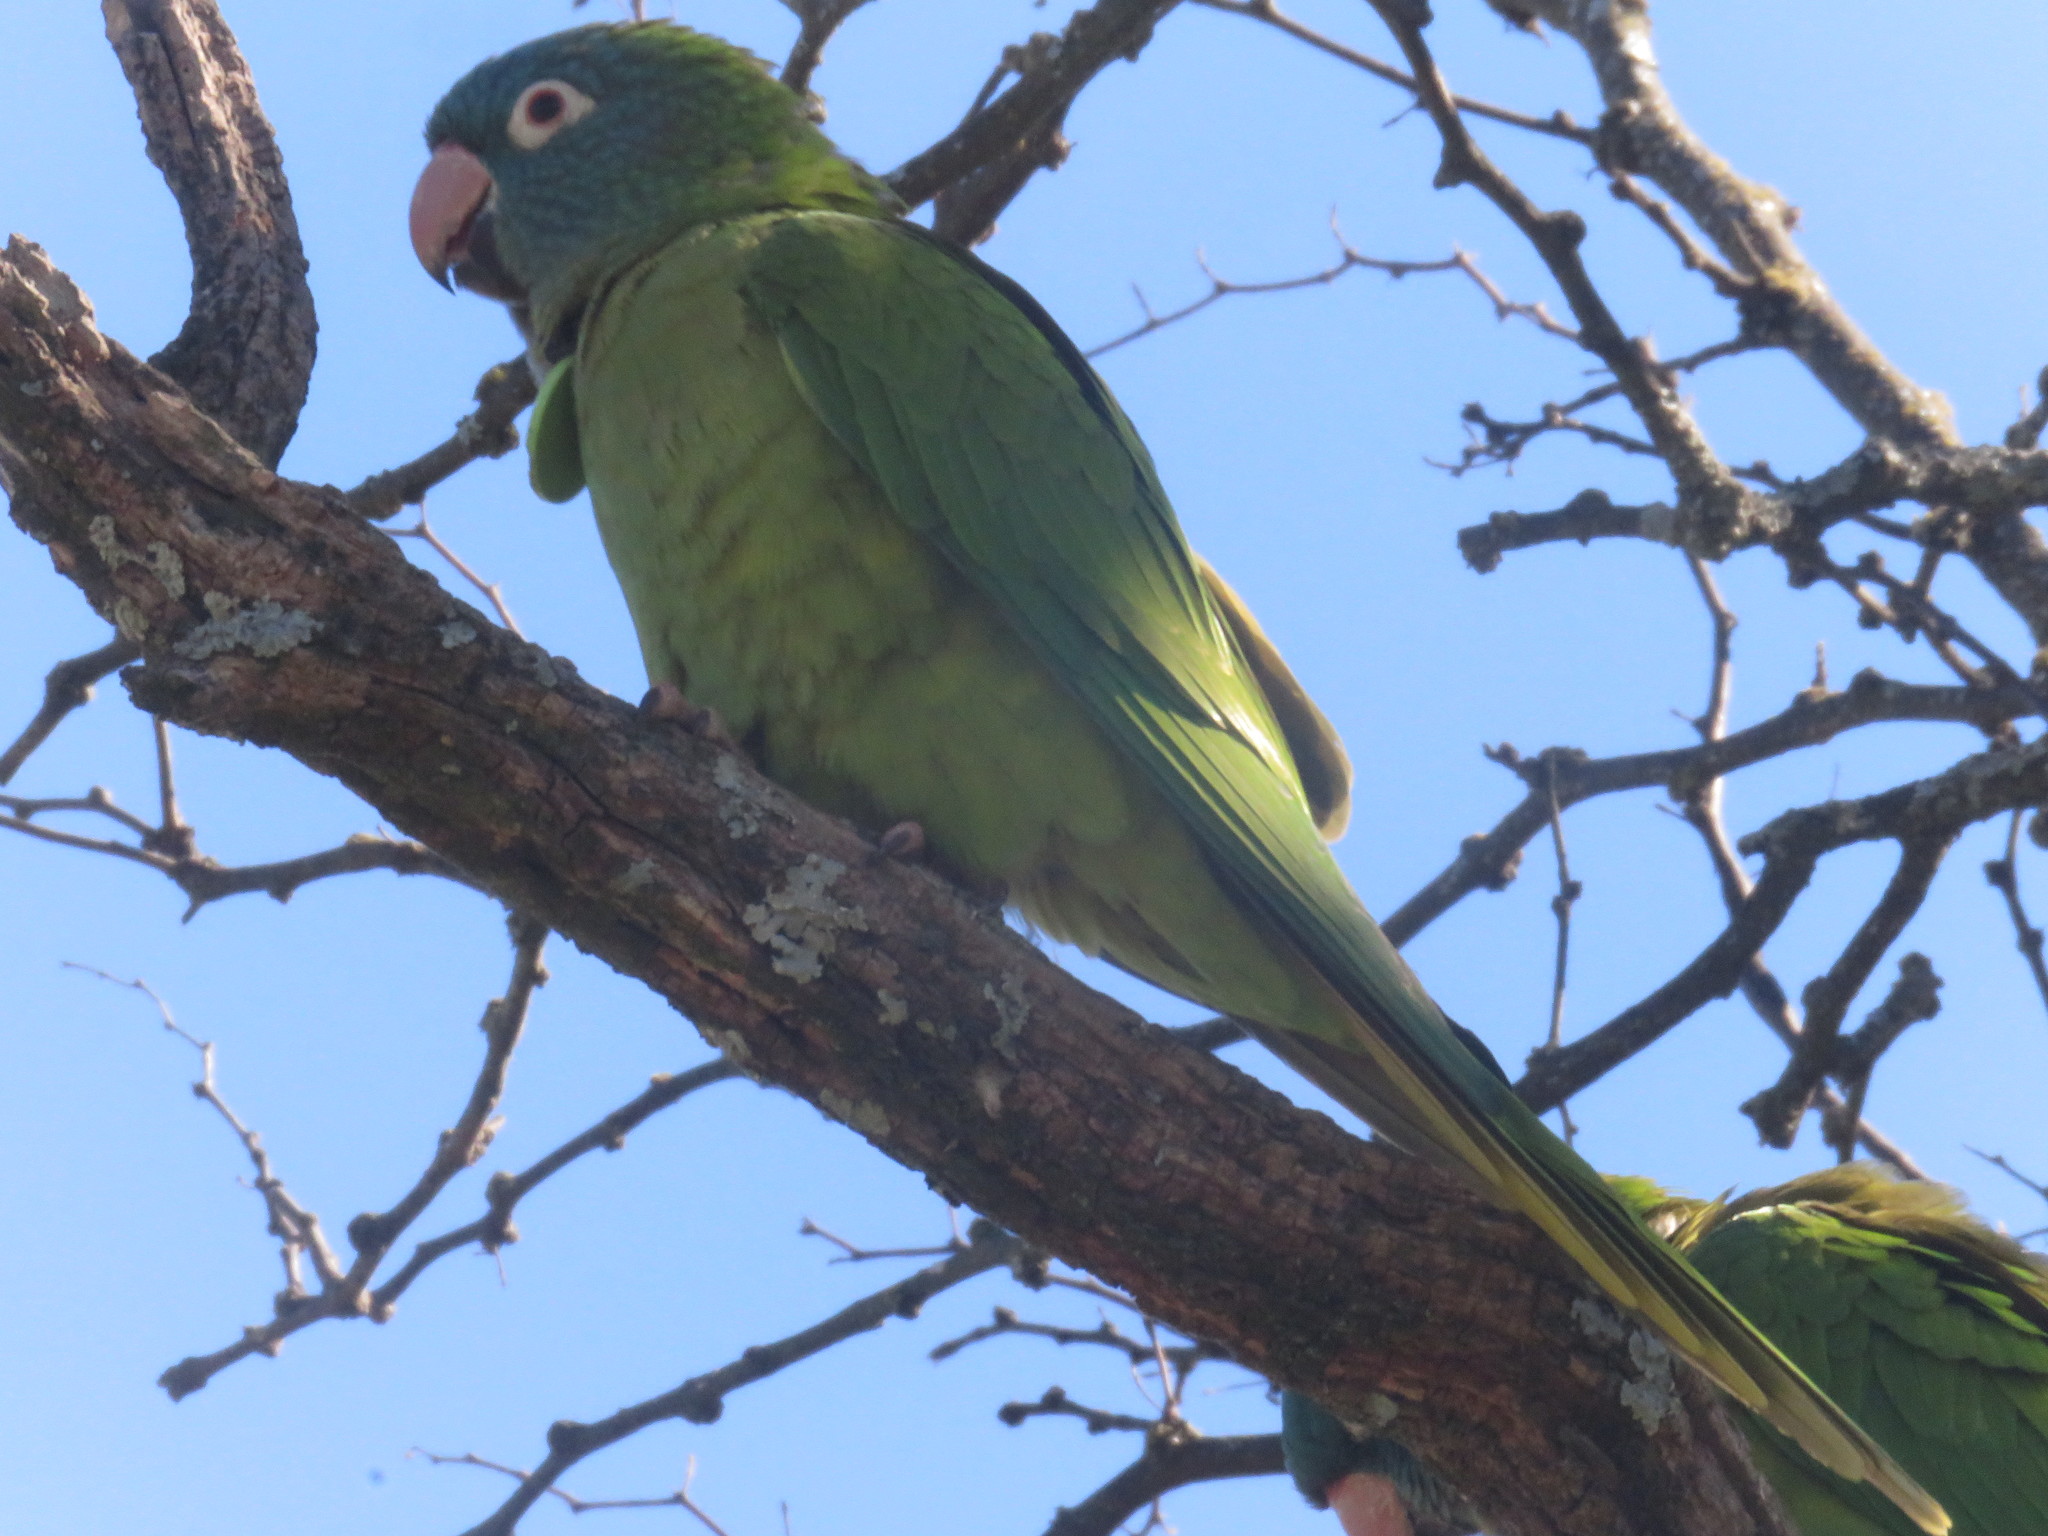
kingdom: Animalia
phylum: Chordata
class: Aves
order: Psittaciformes
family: Psittacidae
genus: Aratinga
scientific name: Aratinga acuticaudata
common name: Blue-crowned parakeet
